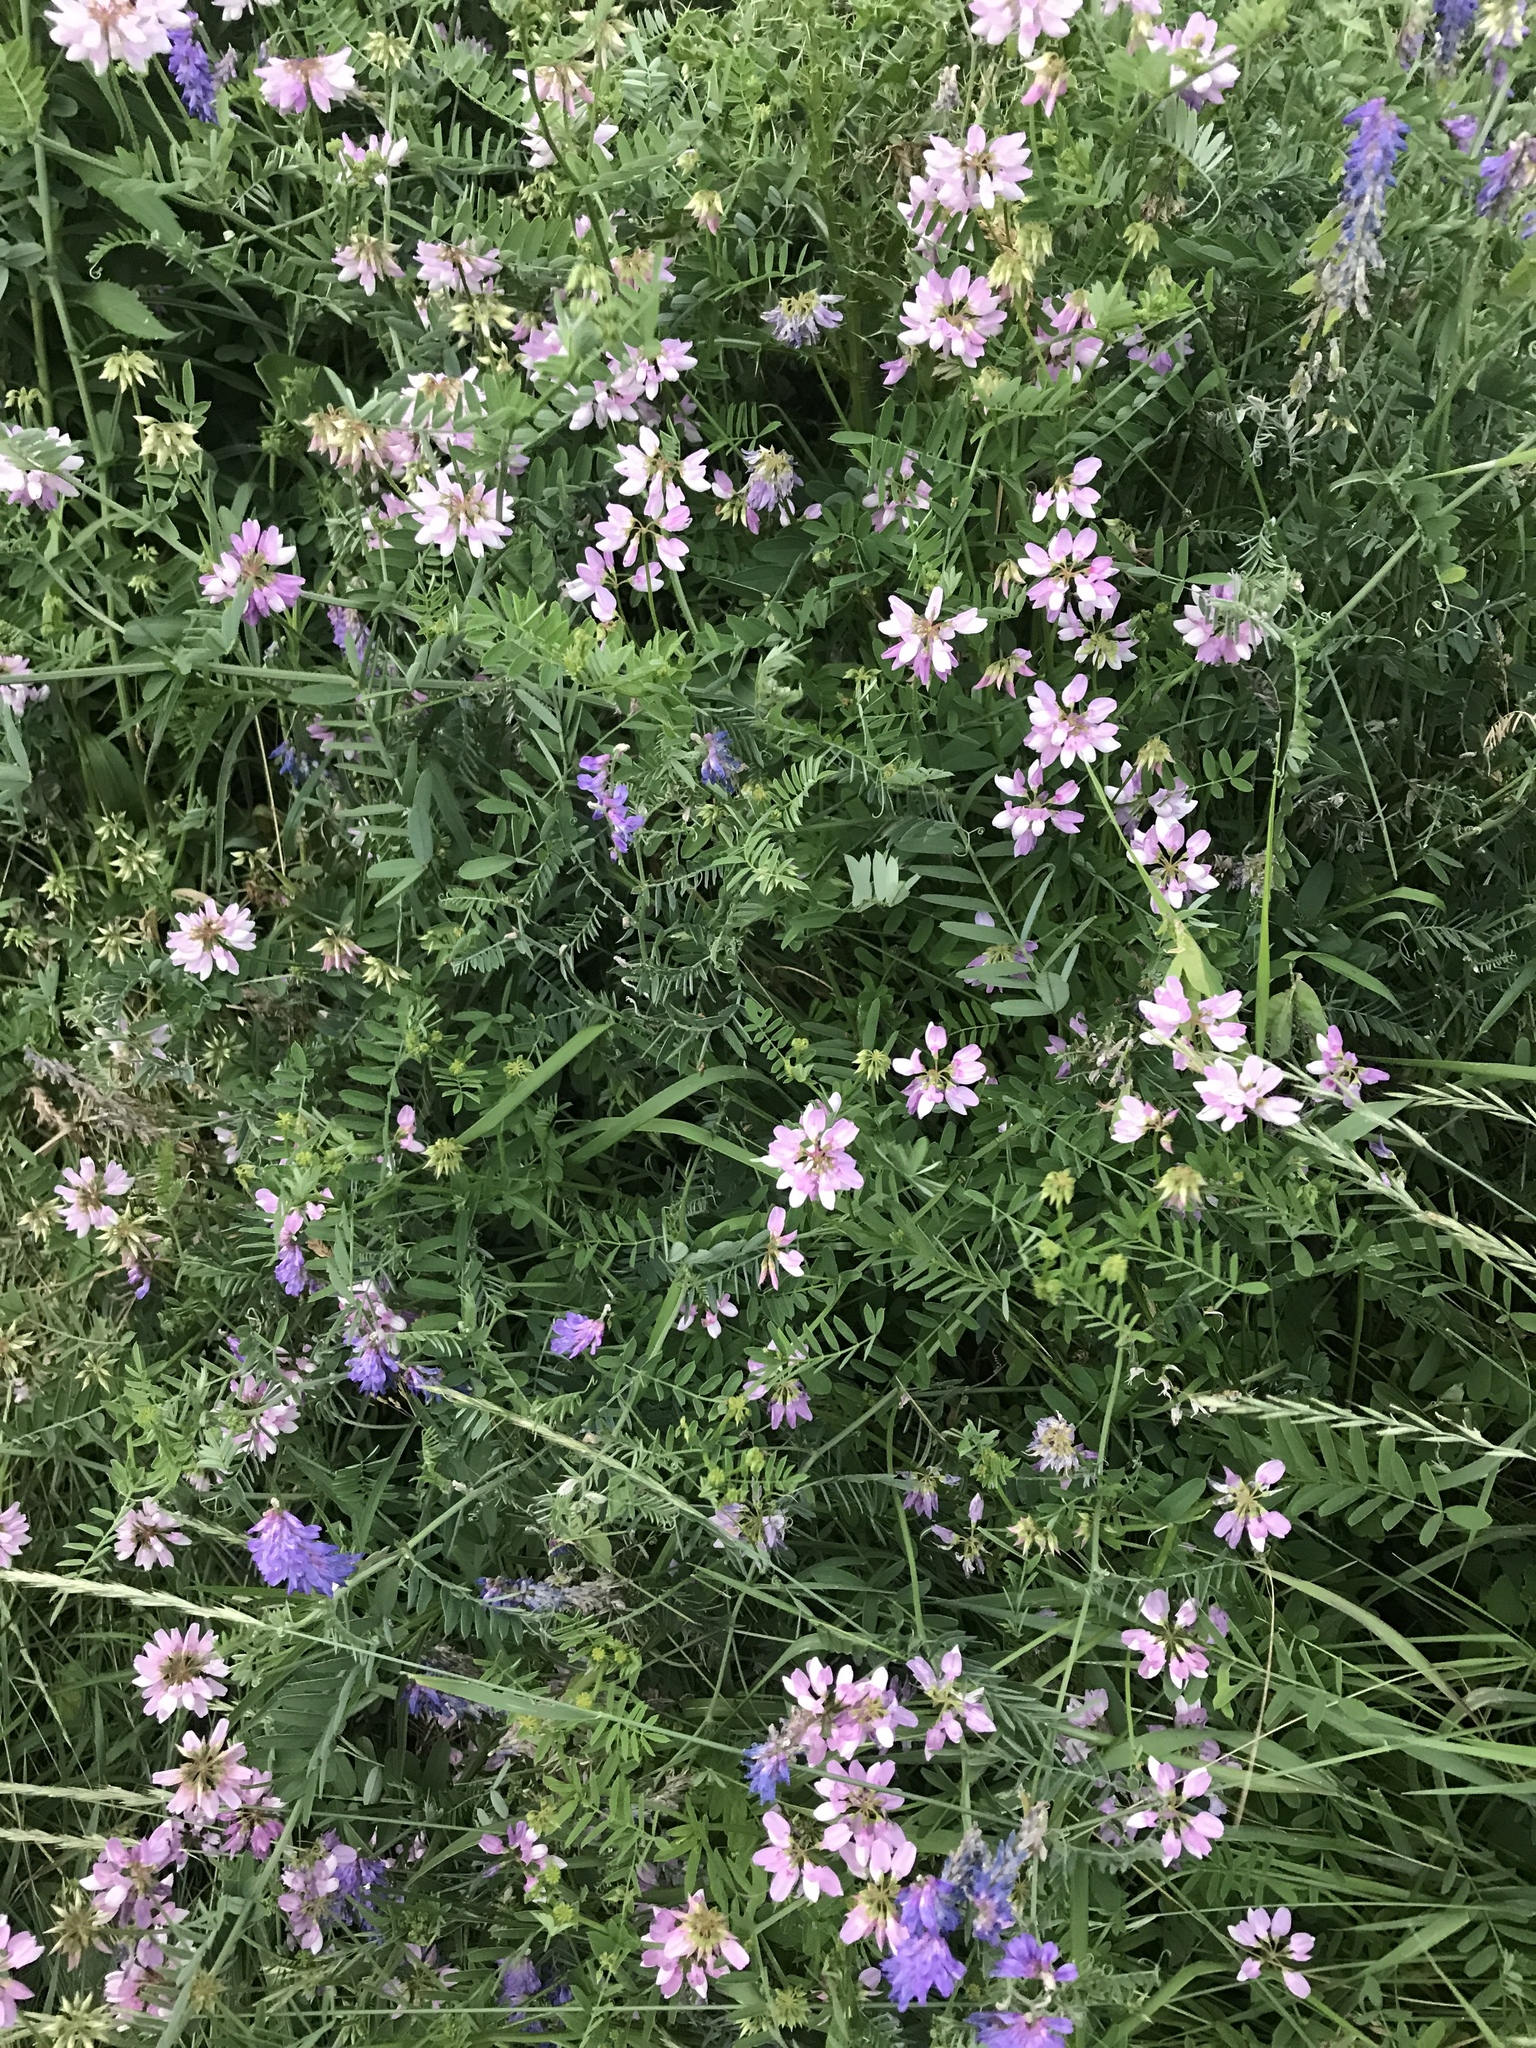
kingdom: Plantae
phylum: Tracheophyta
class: Magnoliopsida
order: Fabales
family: Fabaceae
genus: Coronilla
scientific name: Coronilla varia
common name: Crownvetch
